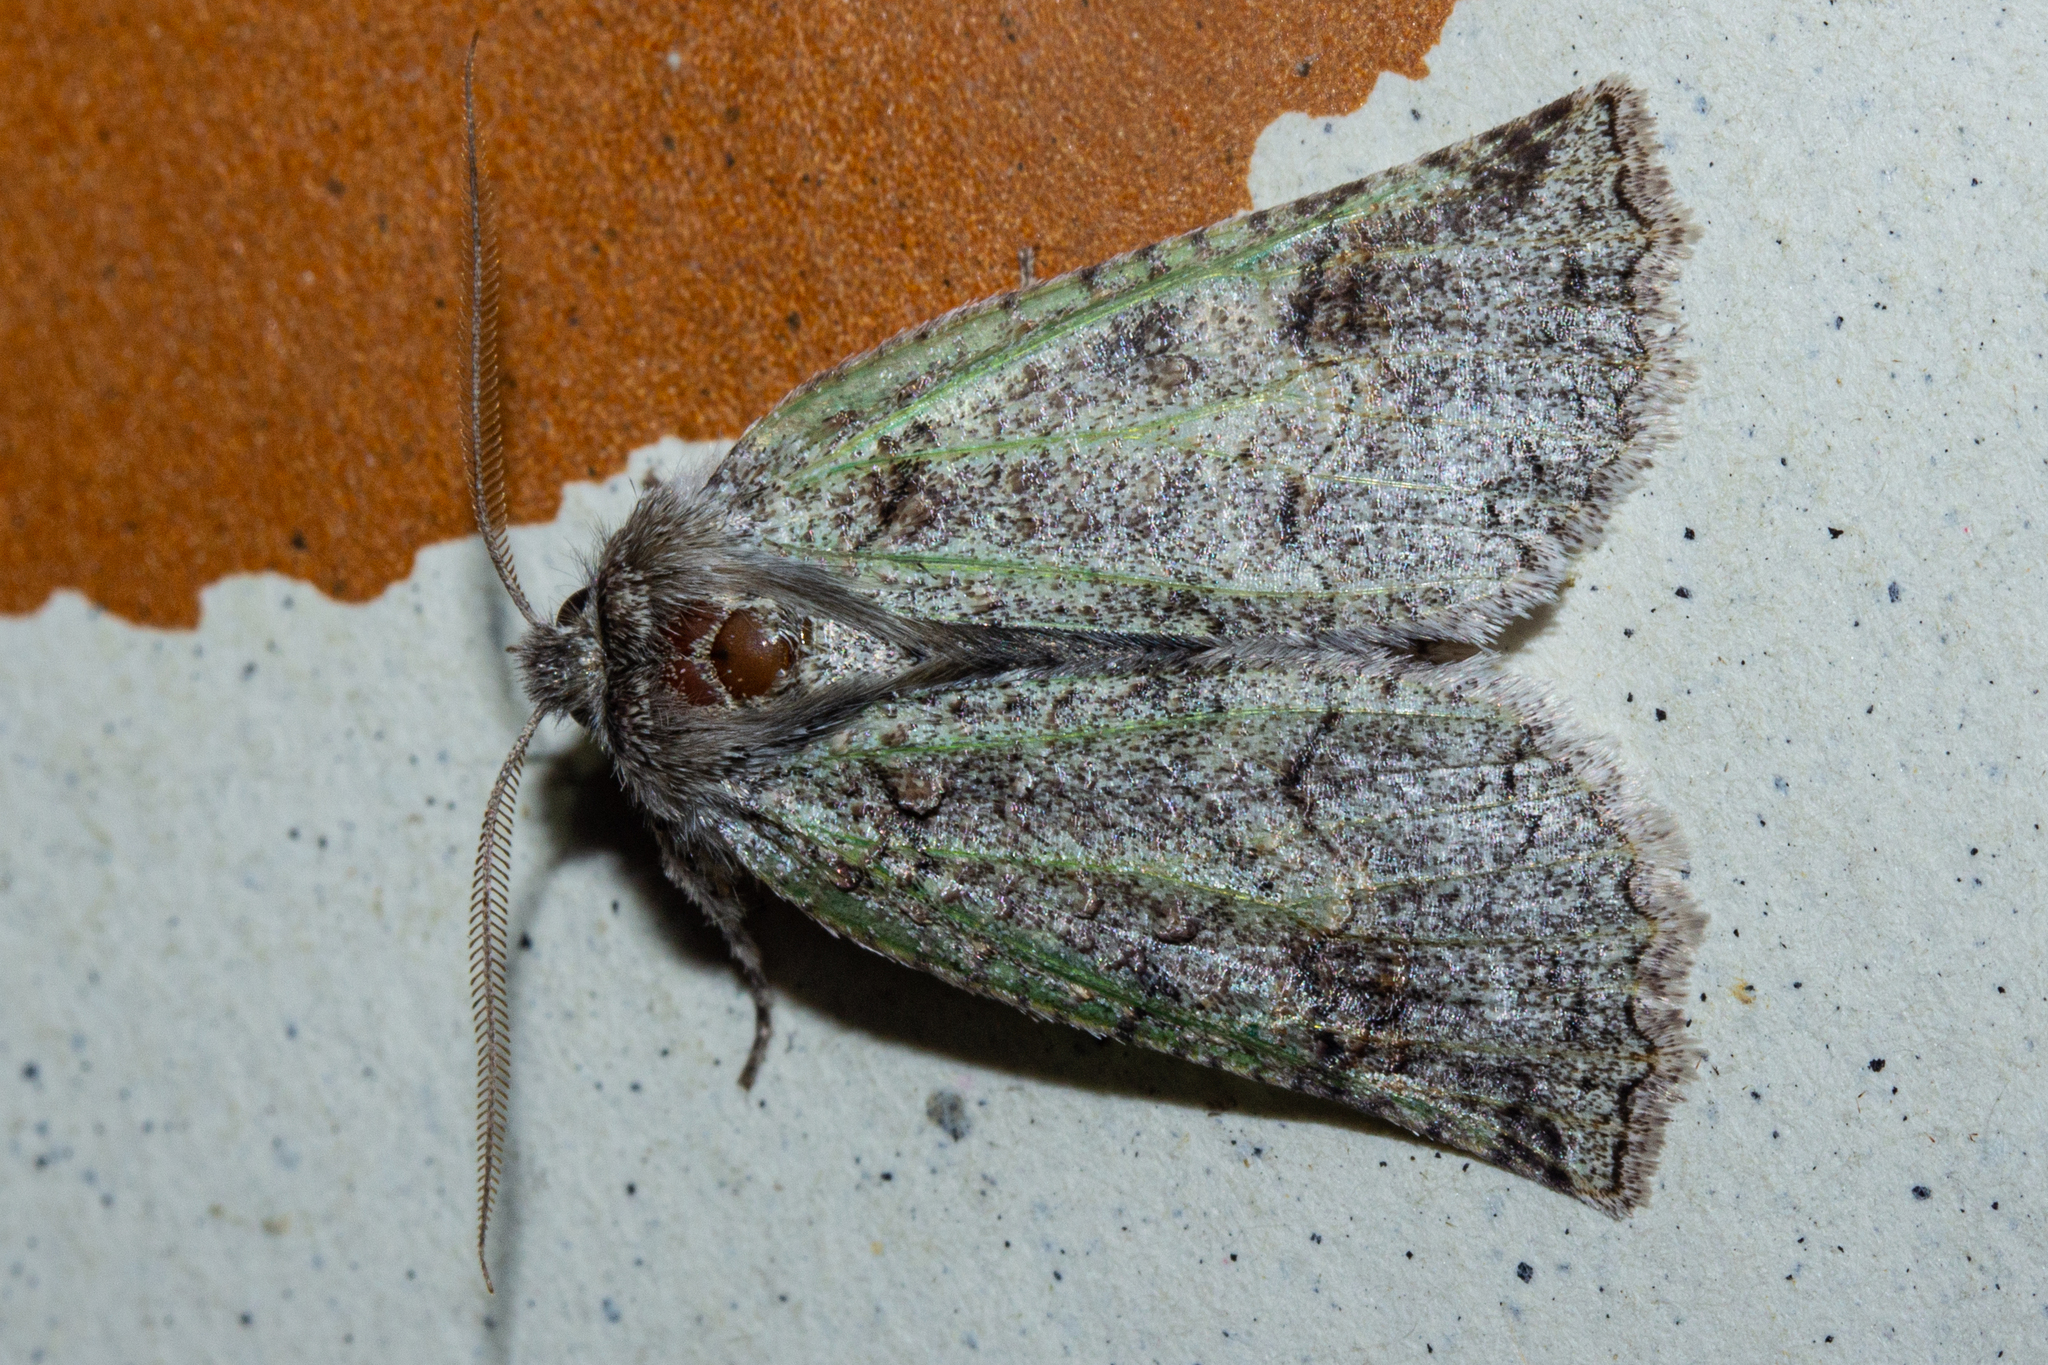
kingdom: Animalia
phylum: Arthropoda
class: Insecta
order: Lepidoptera
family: Geometridae
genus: Declana
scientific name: Declana floccosa
